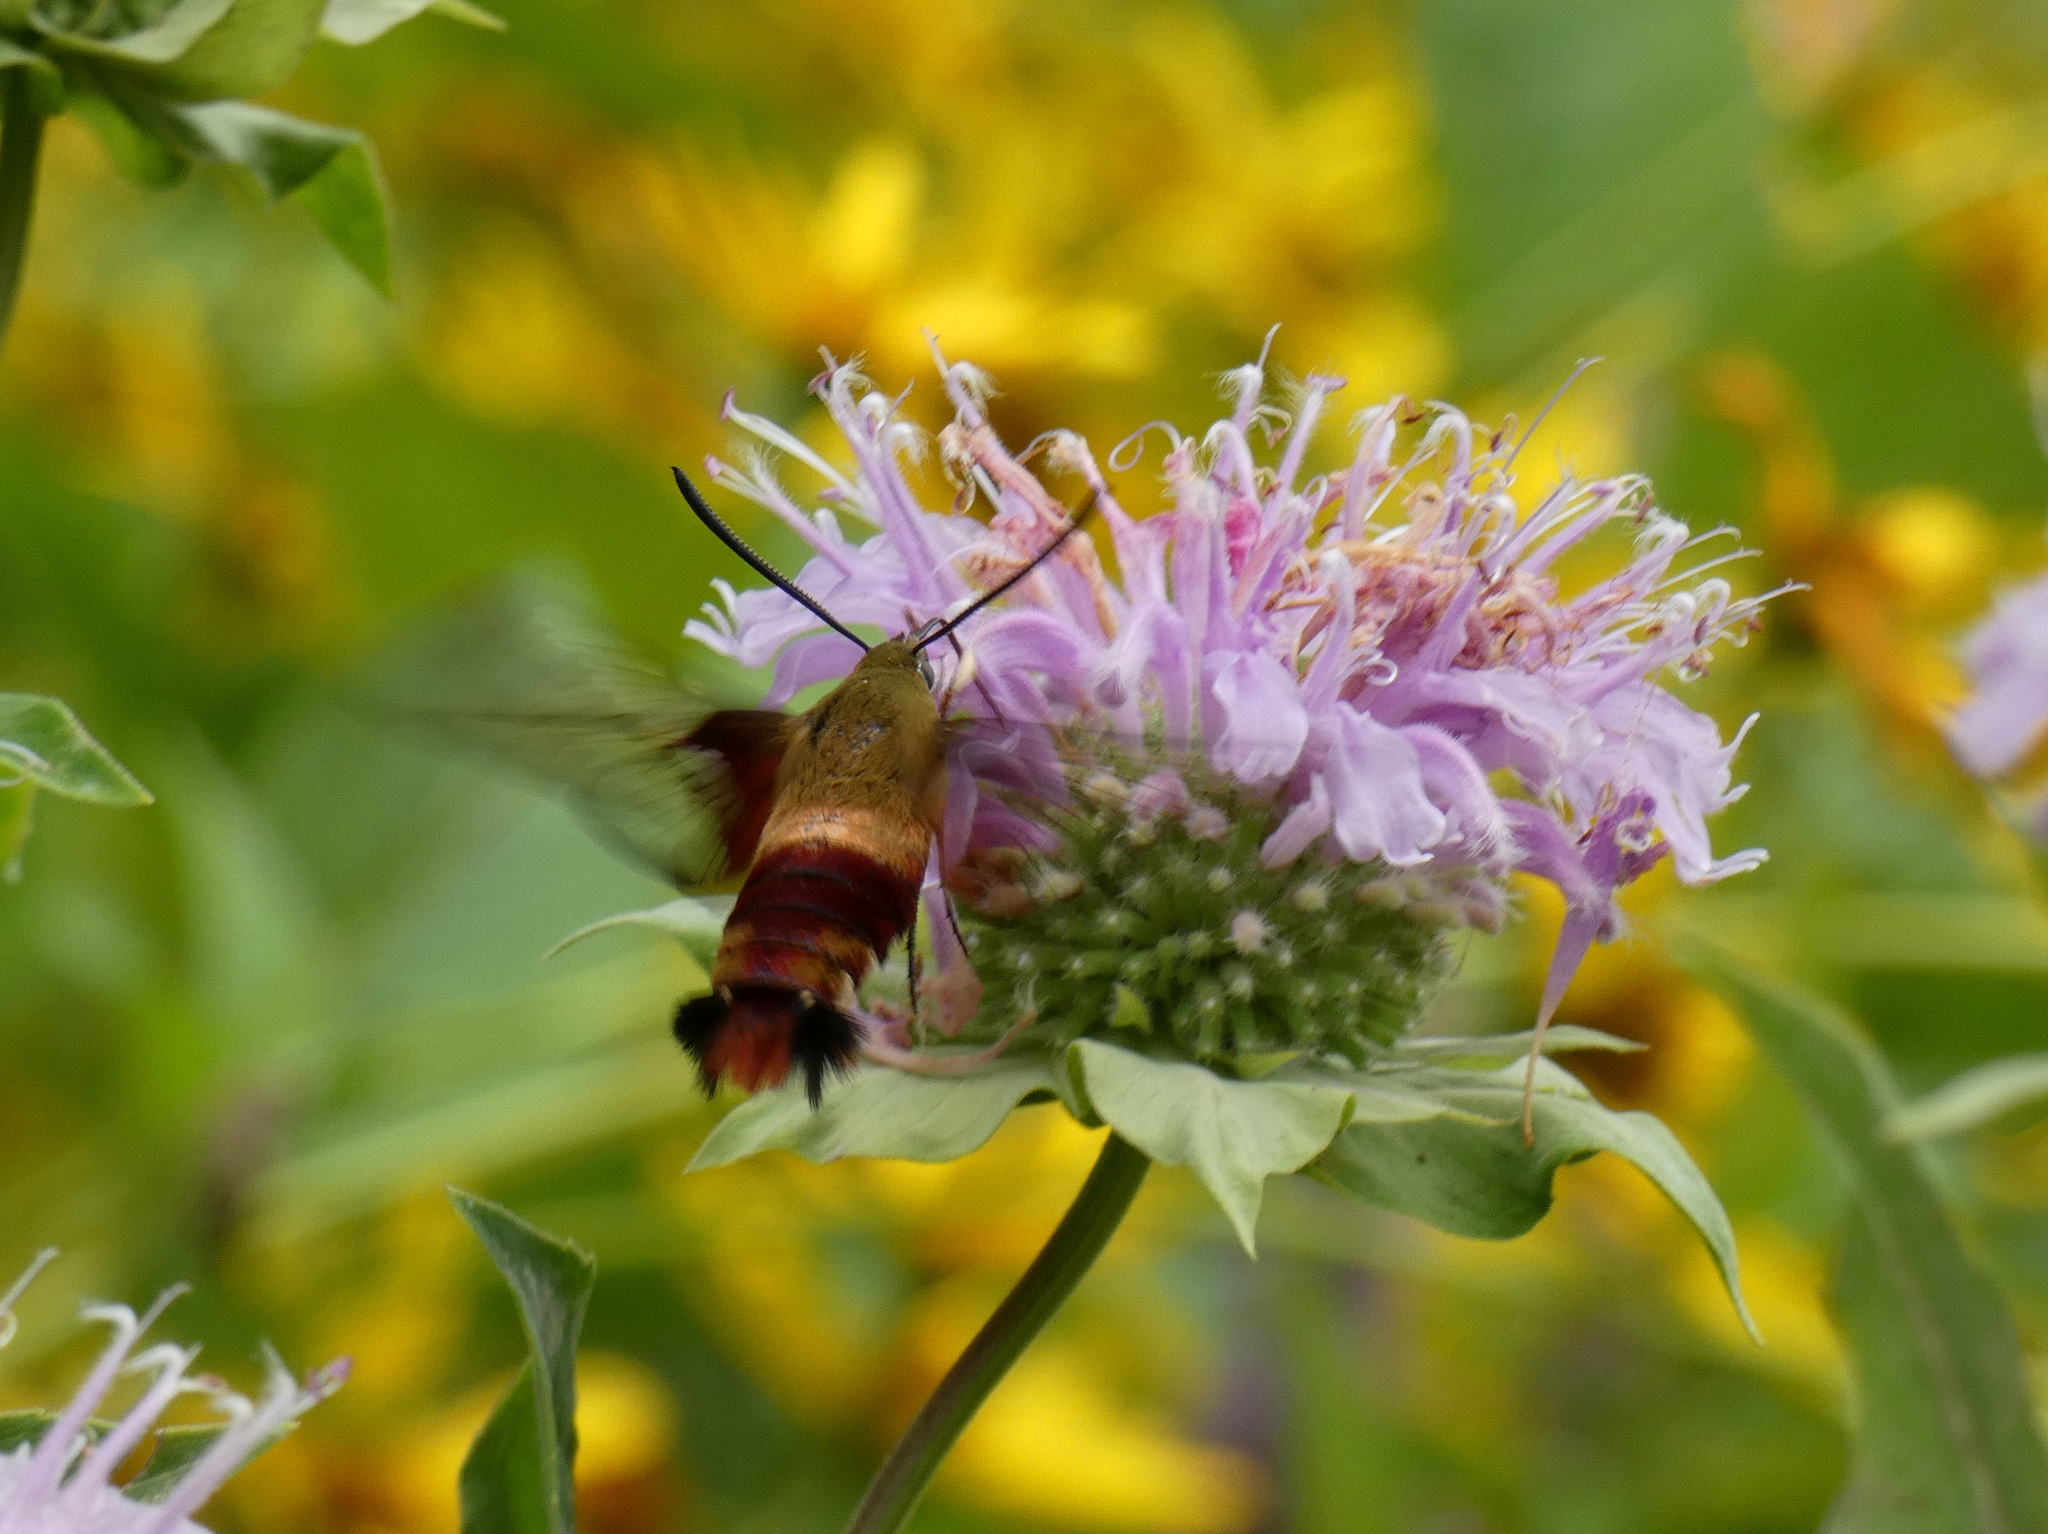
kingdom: Animalia
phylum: Arthropoda
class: Insecta
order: Lepidoptera
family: Sphingidae
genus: Hemaris
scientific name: Hemaris thysbe
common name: Common clear-wing
